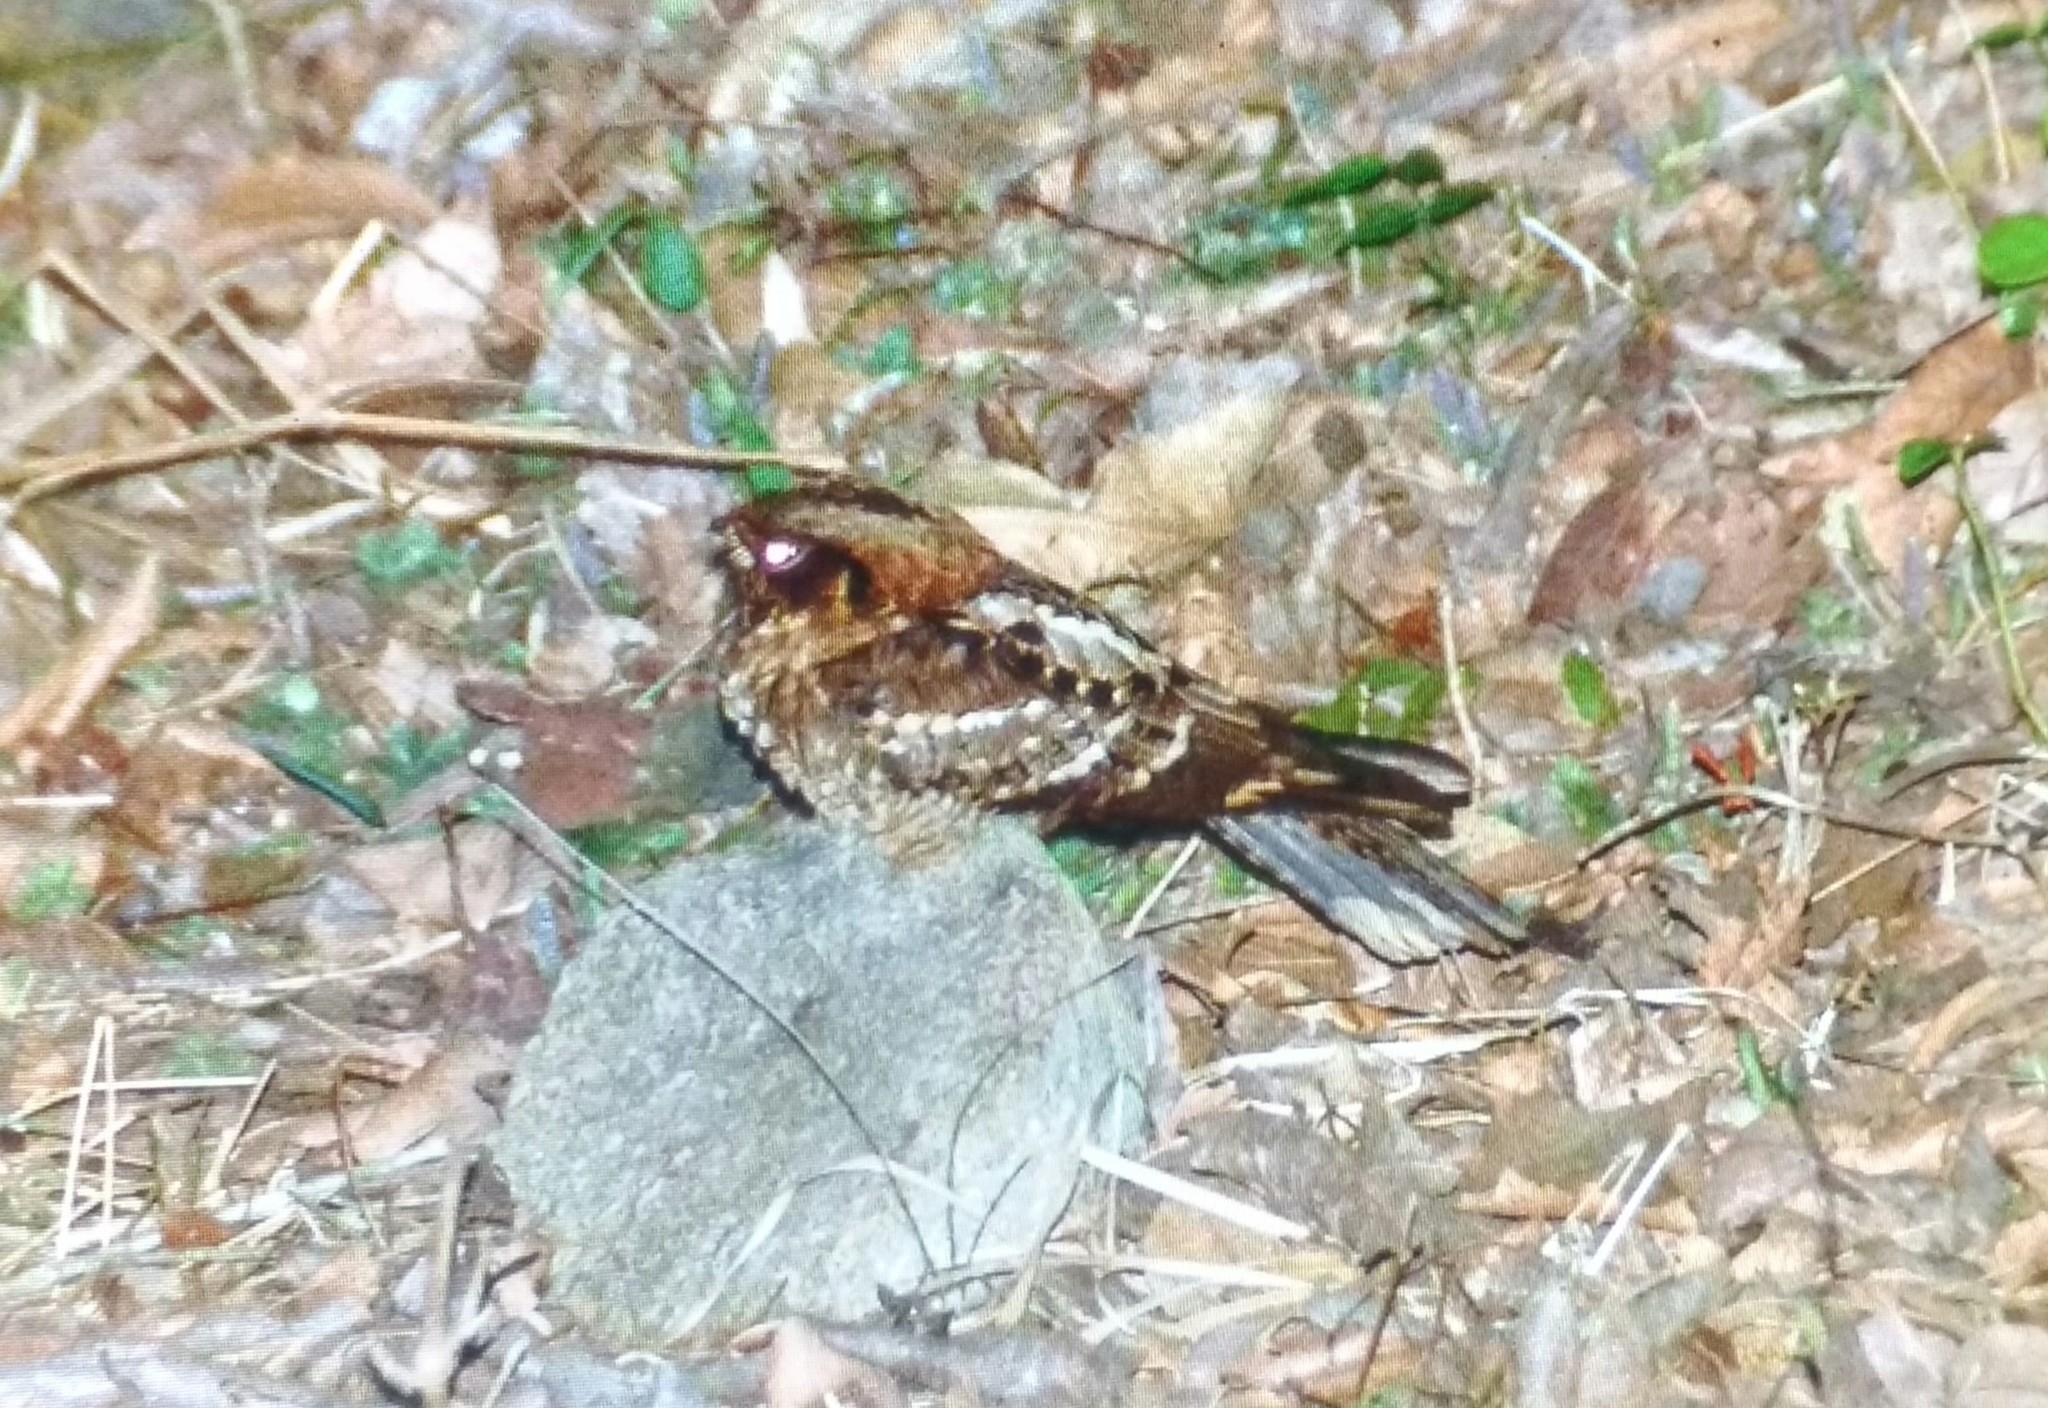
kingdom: Animalia
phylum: Chordata
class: Aves
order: Caprimulgiformes
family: Caprimulgidae
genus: Caprimulgus
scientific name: Caprimulgus atripennis
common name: Jerdon's nightjar
